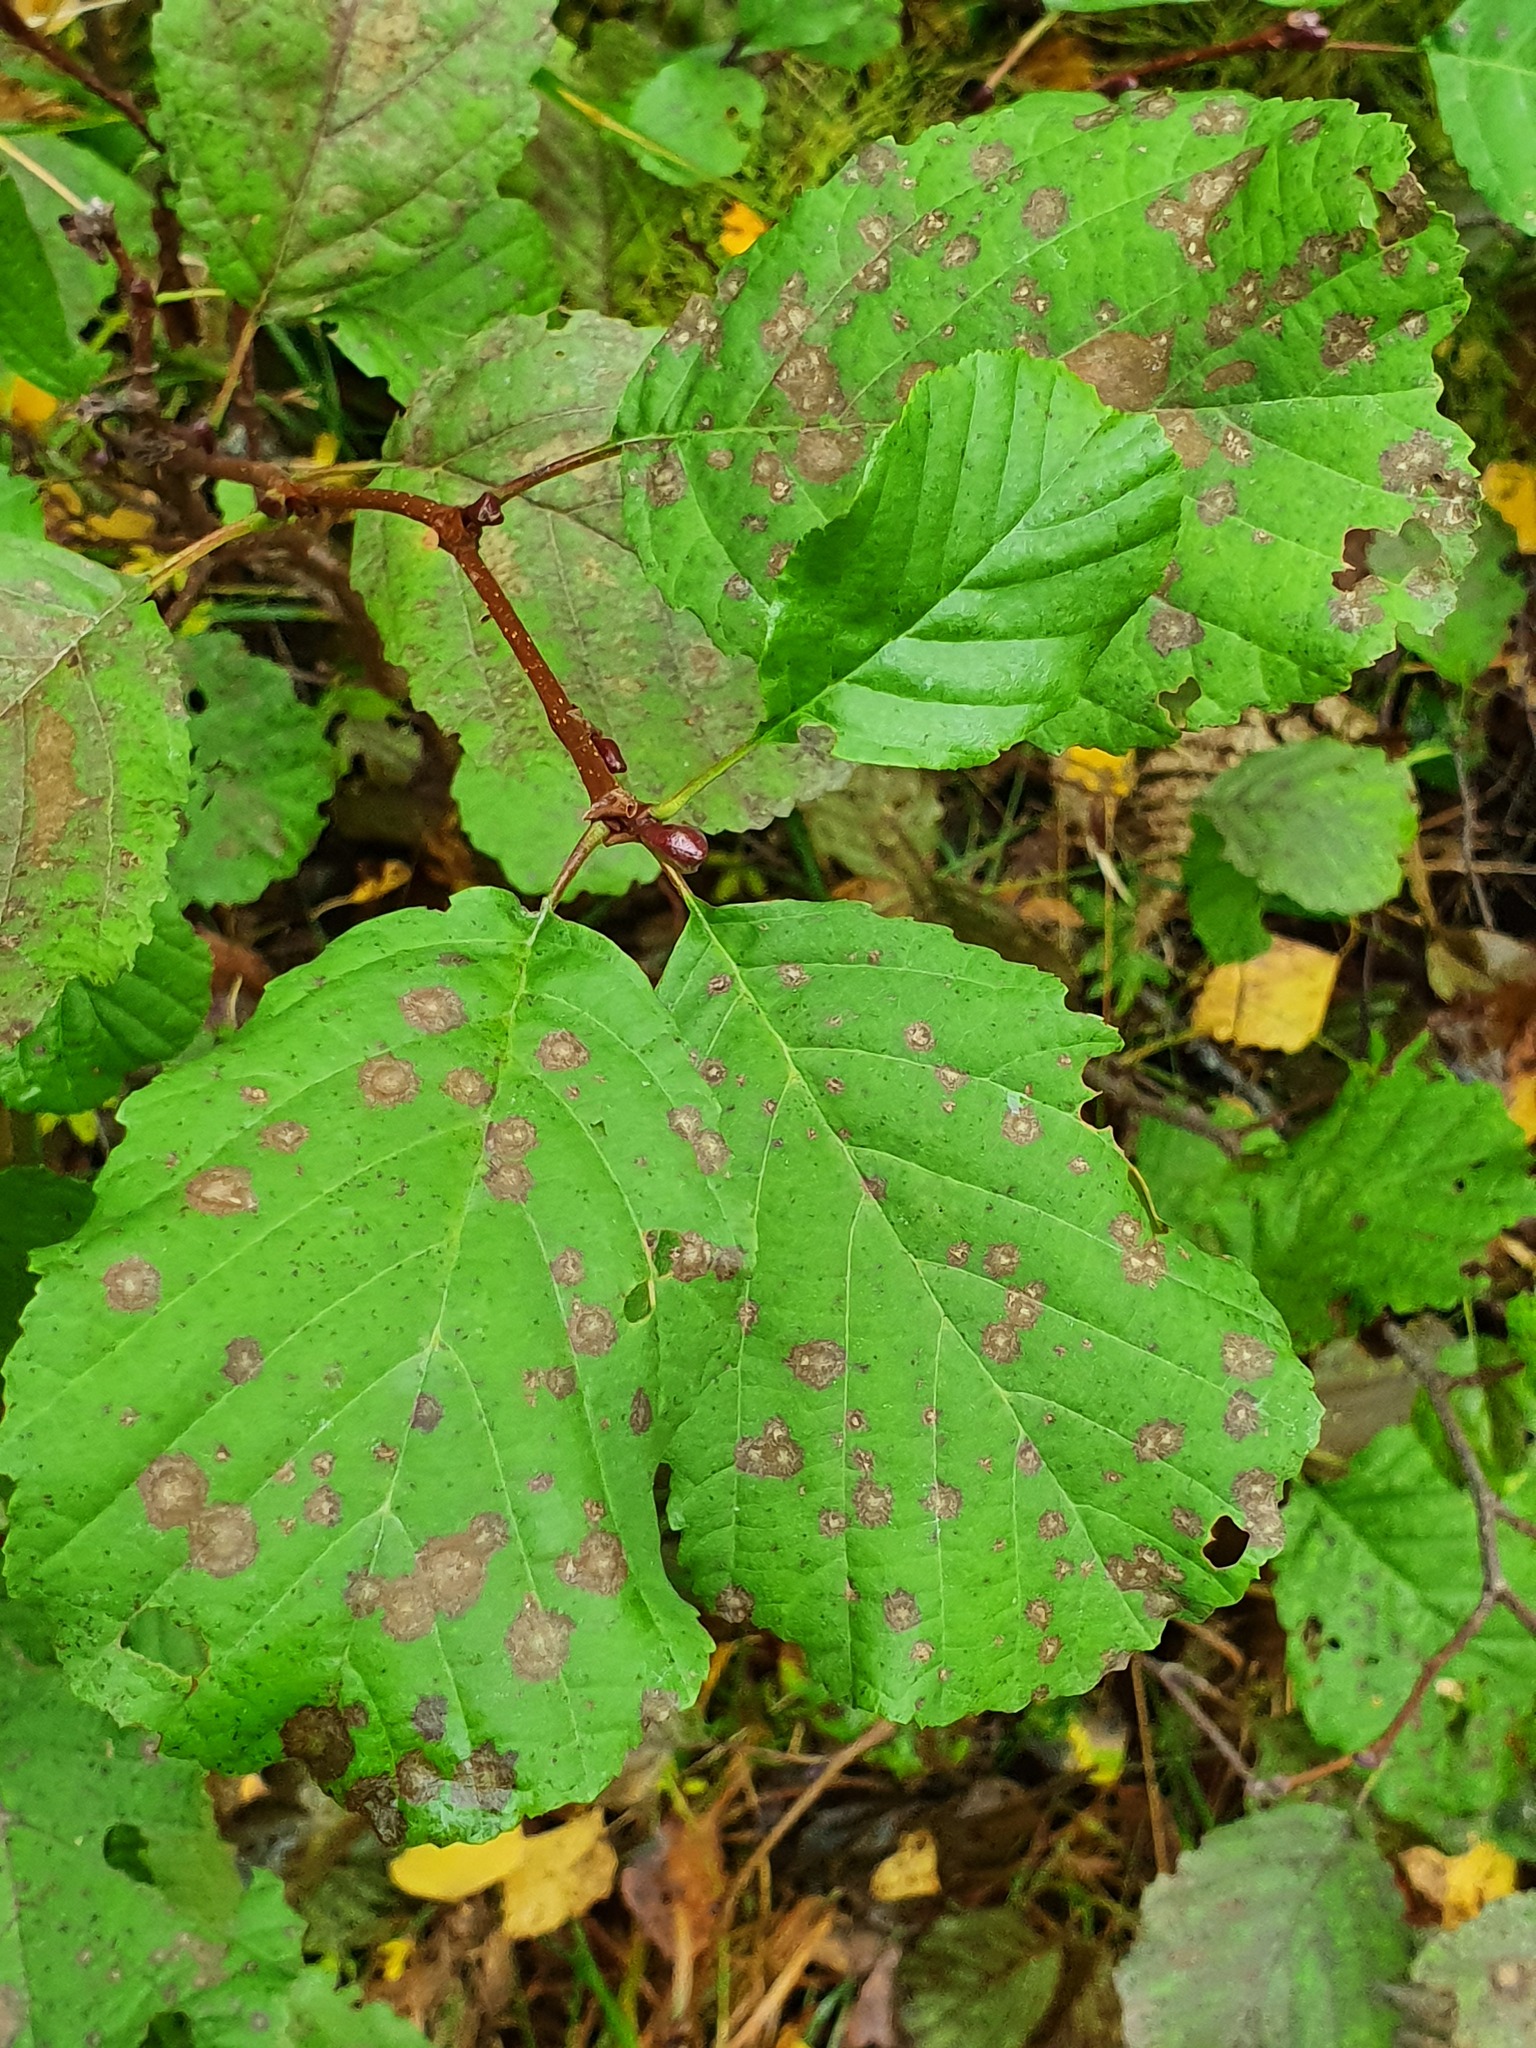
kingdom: Plantae
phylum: Tracheophyta
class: Magnoliopsida
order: Fagales
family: Betulaceae
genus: Alnus
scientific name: Alnus glutinosa
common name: Black alder
